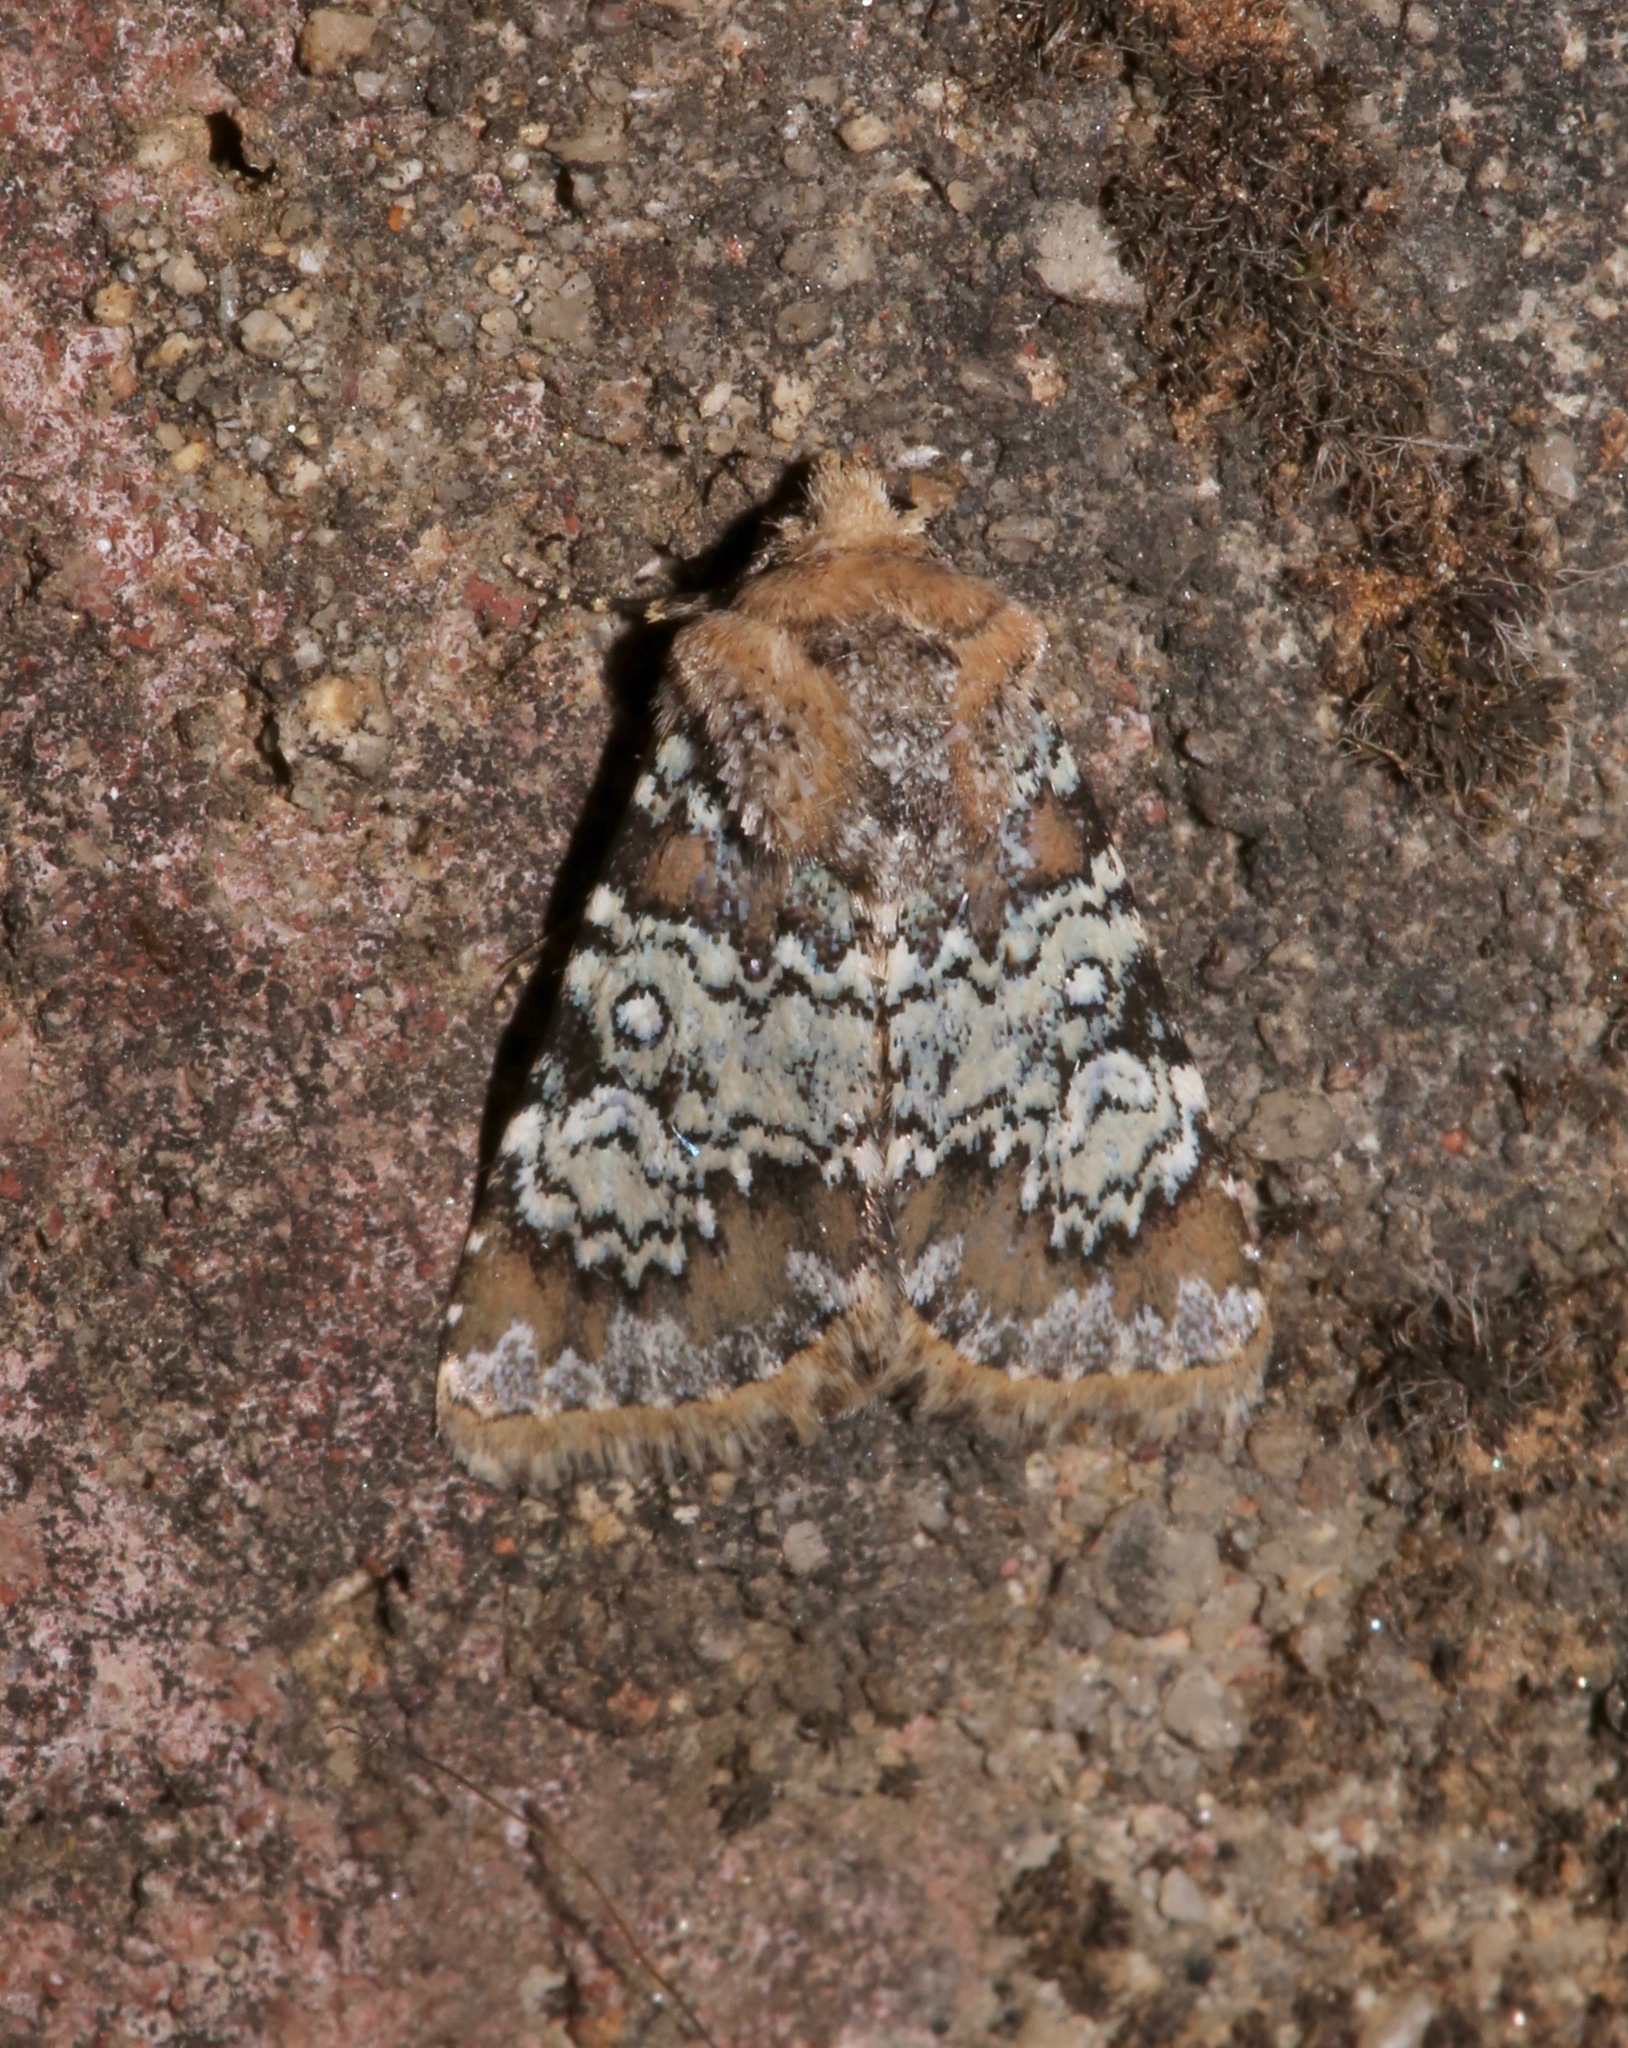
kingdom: Animalia
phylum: Arthropoda
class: Insecta
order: Lepidoptera
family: Noctuidae
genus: Hemibryomima
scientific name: Hemibryomima chryselectra
